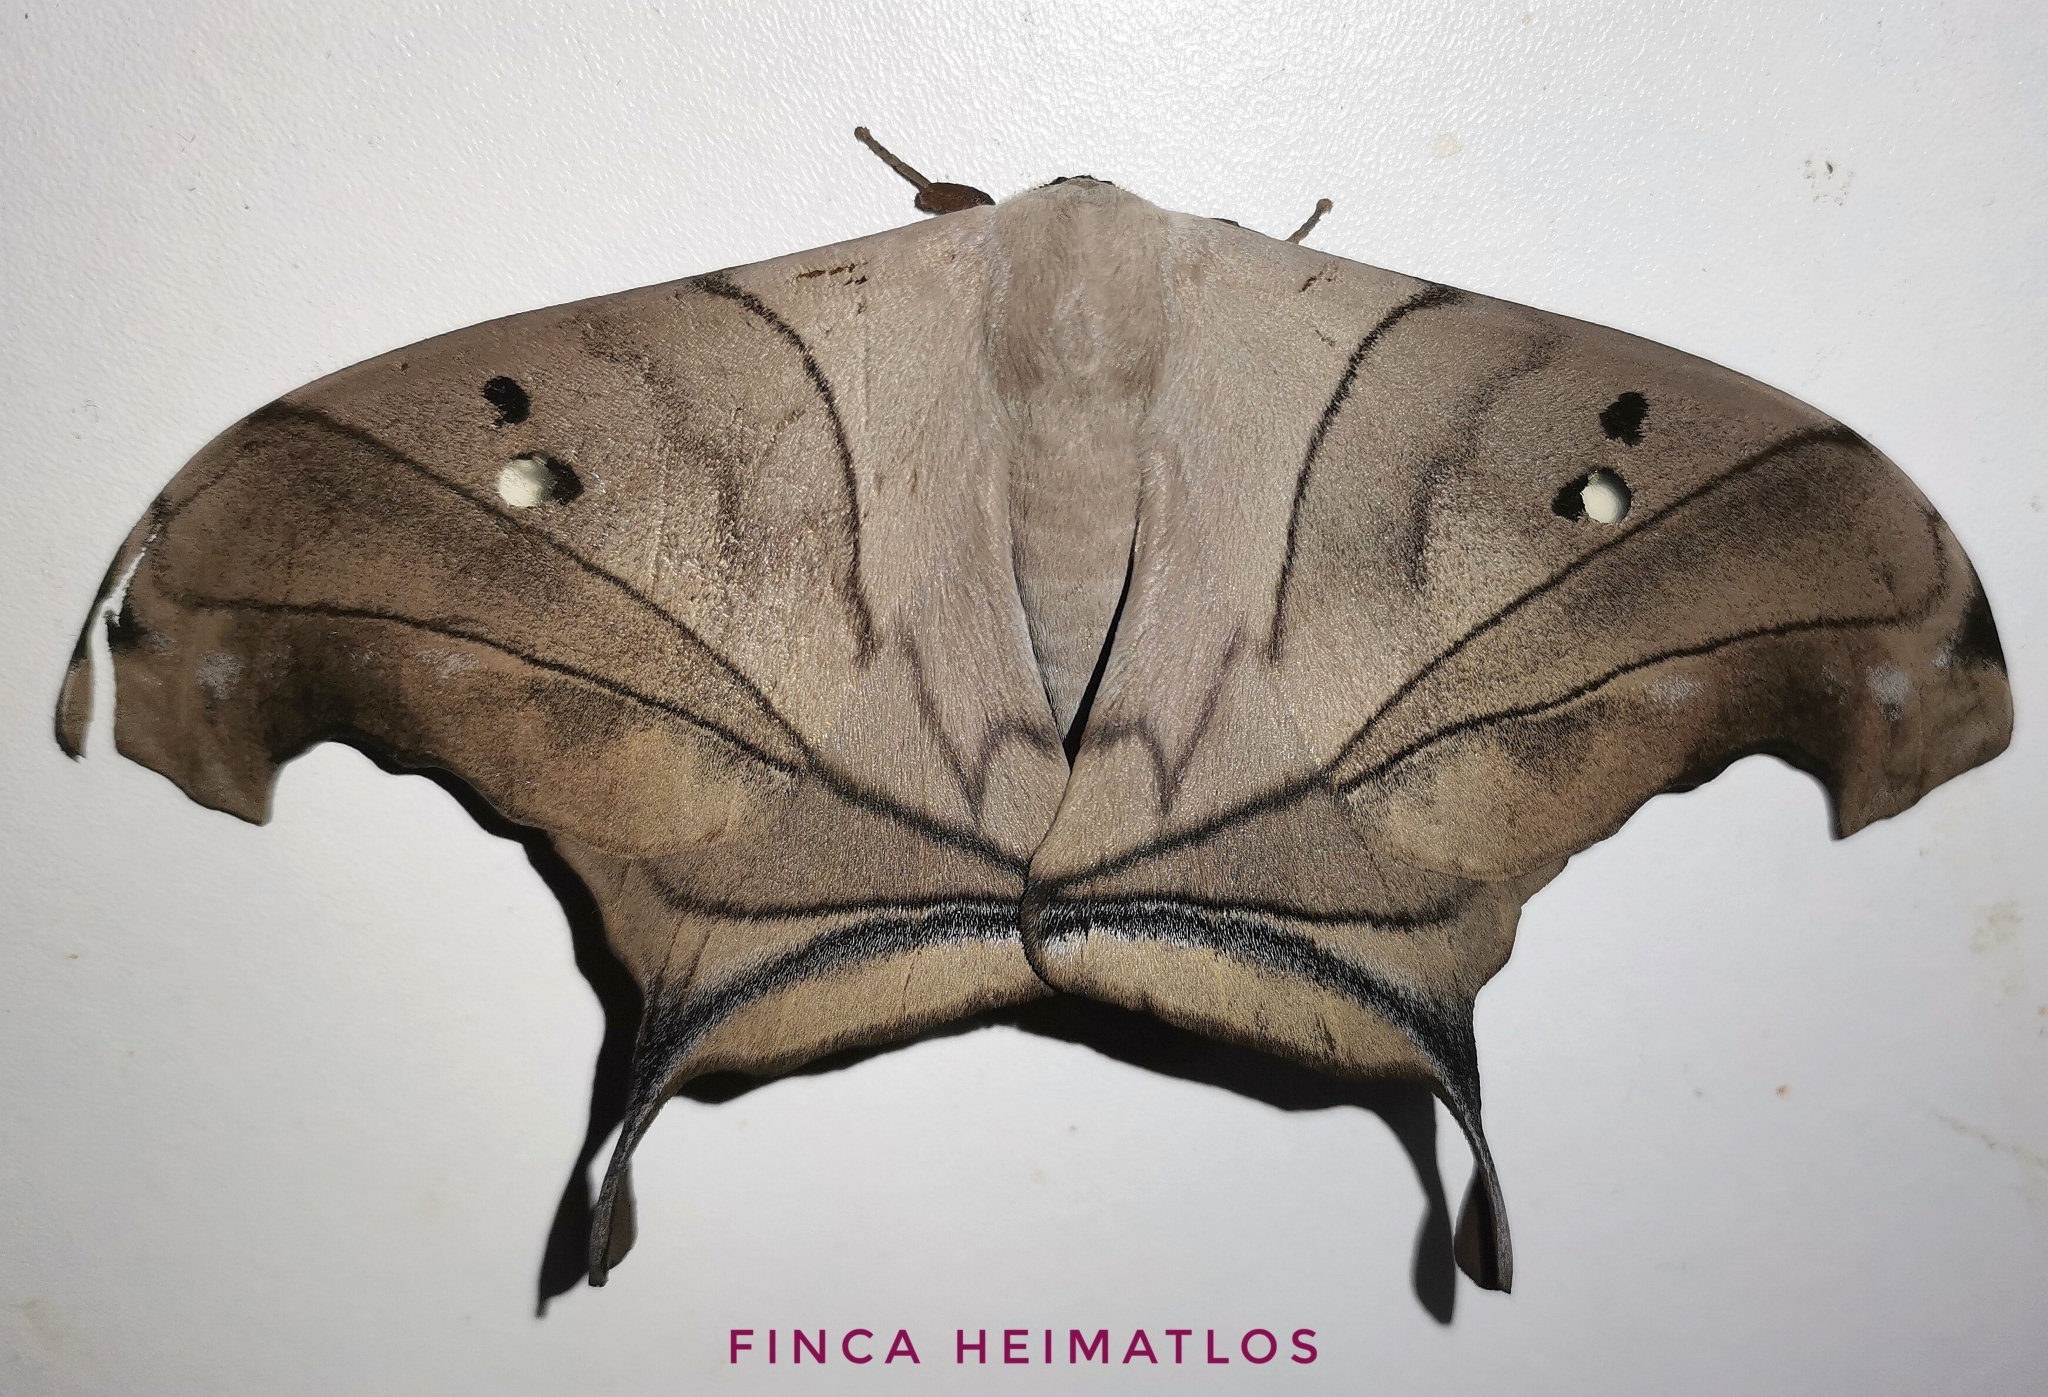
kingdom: Animalia
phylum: Arthropoda
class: Insecta
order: Lepidoptera
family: Saturniidae
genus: Dysdaemonia
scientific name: Dysdaemonia australoboreas
